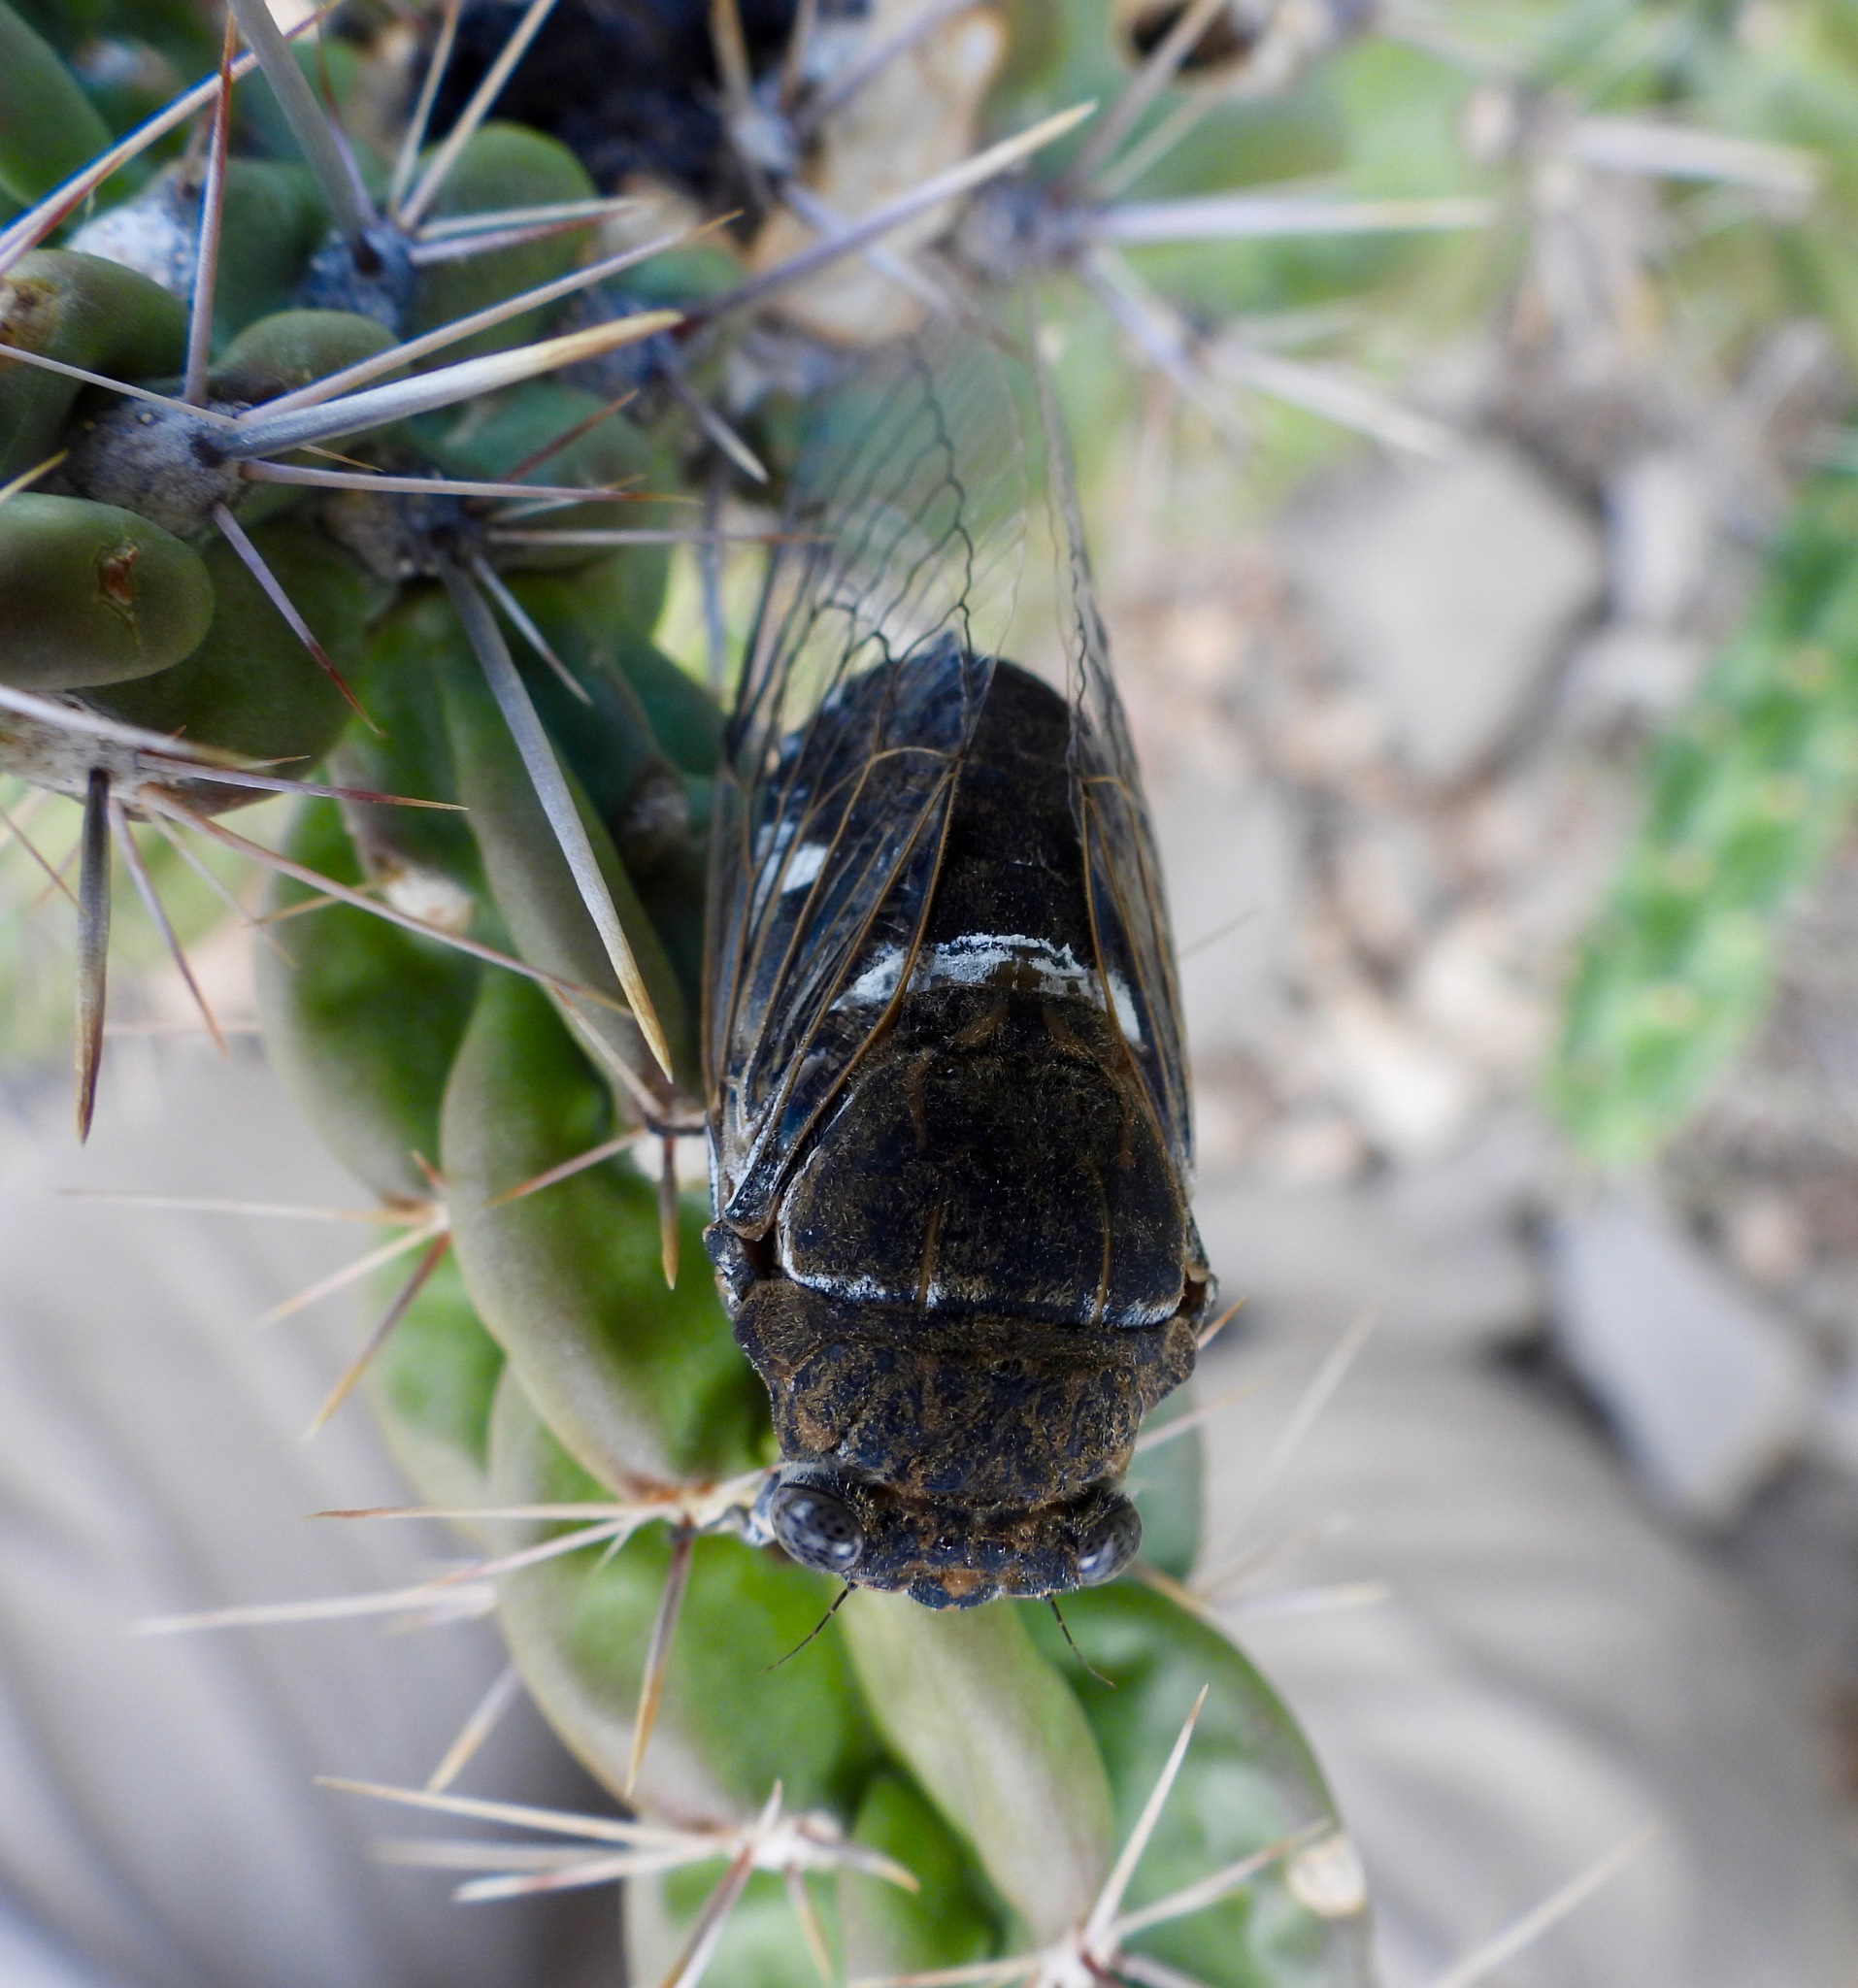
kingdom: Animalia
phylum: Arthropoda
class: Insecta
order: Hemiptera
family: Cicadidae
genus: Cacama
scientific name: Cacama valvata
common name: Cactus dodger
